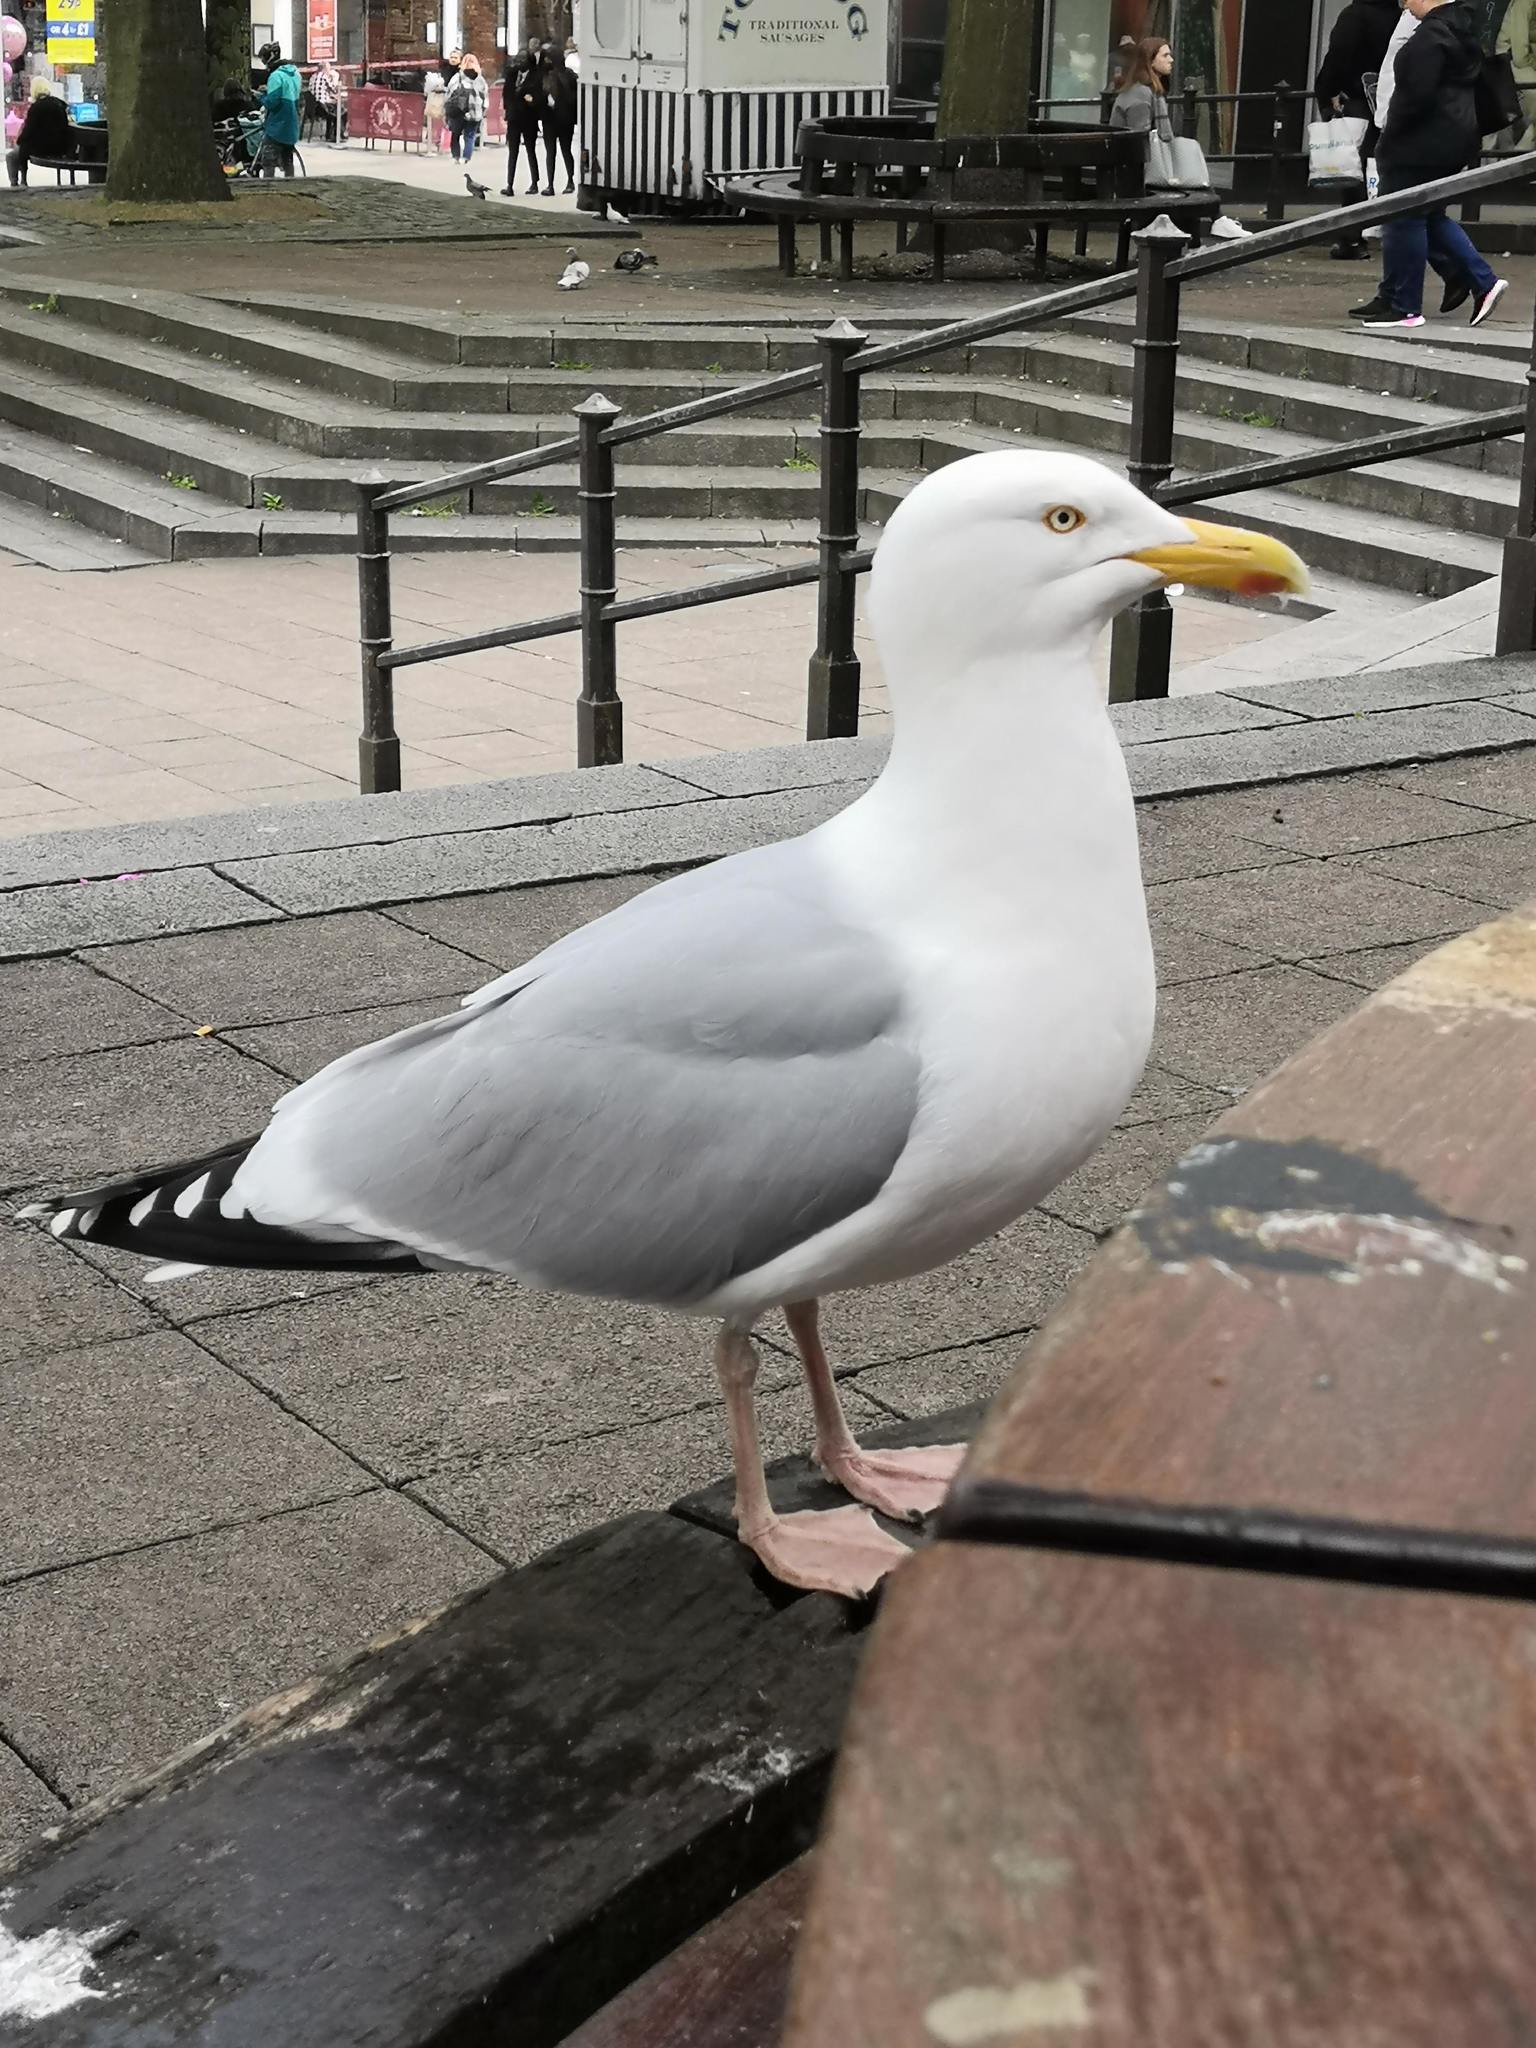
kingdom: Animalia
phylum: Chordata
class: Aves
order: Charadriiformes
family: Laridae
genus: Larus
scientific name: Larus argentatus
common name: Herring gull
